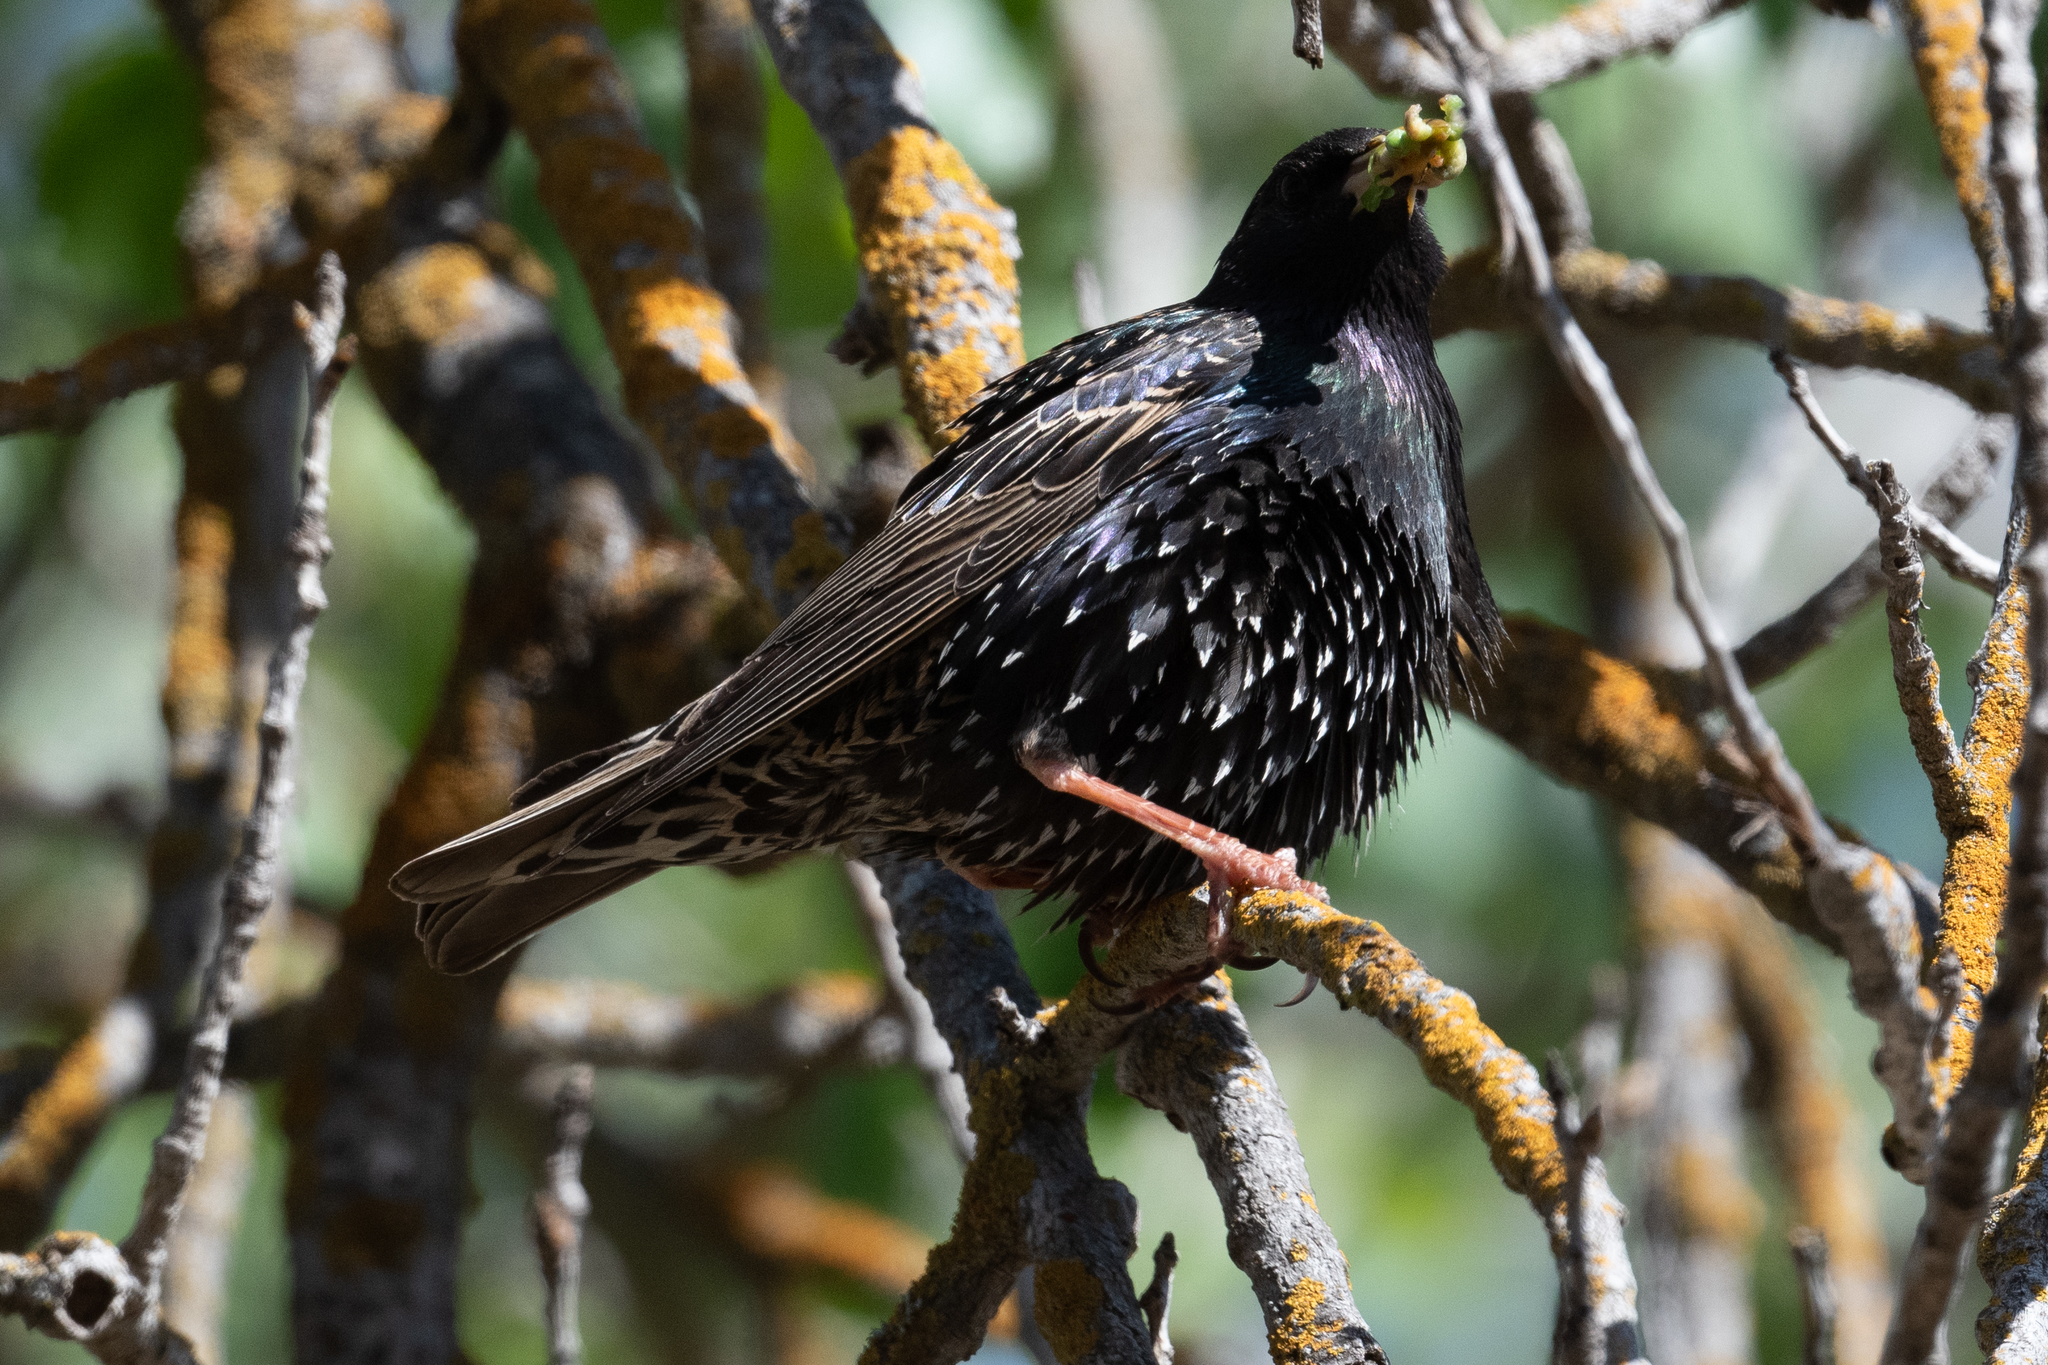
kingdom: Animalia
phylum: Chordata
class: Aves
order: Passeriformes
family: Sturnidae
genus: Sturnus
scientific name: Sturnus vulgaris
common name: Common starling
